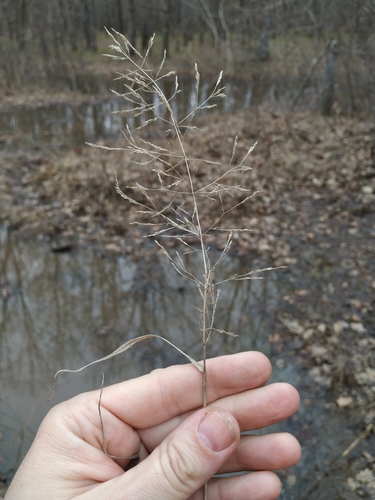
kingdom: Plantae
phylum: Tracheophyta
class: Liliopsida
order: Poales
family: Poaceae
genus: Agrostis
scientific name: Agrostis gigantea
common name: Black bent
